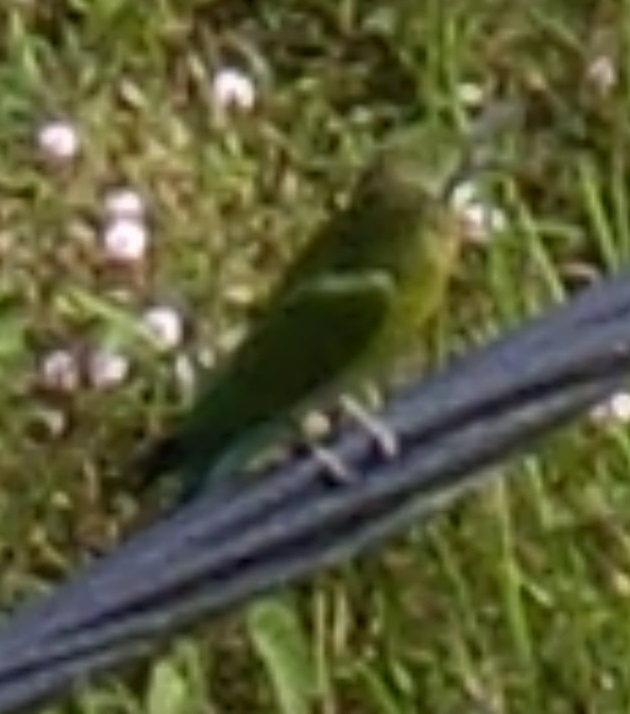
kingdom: Animalia
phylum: Chordata
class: Aves
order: Coraciiformes
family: Meropidae
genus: Merops
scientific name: Merops philippinus
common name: Blue-tailed bee-eater
